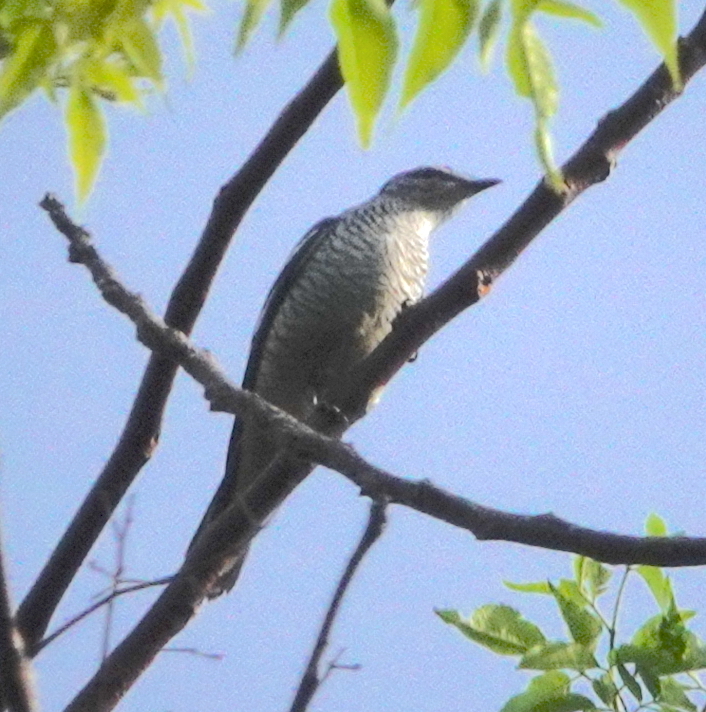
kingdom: Animalia
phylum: Chordata
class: Aves
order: Passeriformes
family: Campephagidae
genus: Lalage
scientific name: Lalage leucomela
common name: Varied triller
